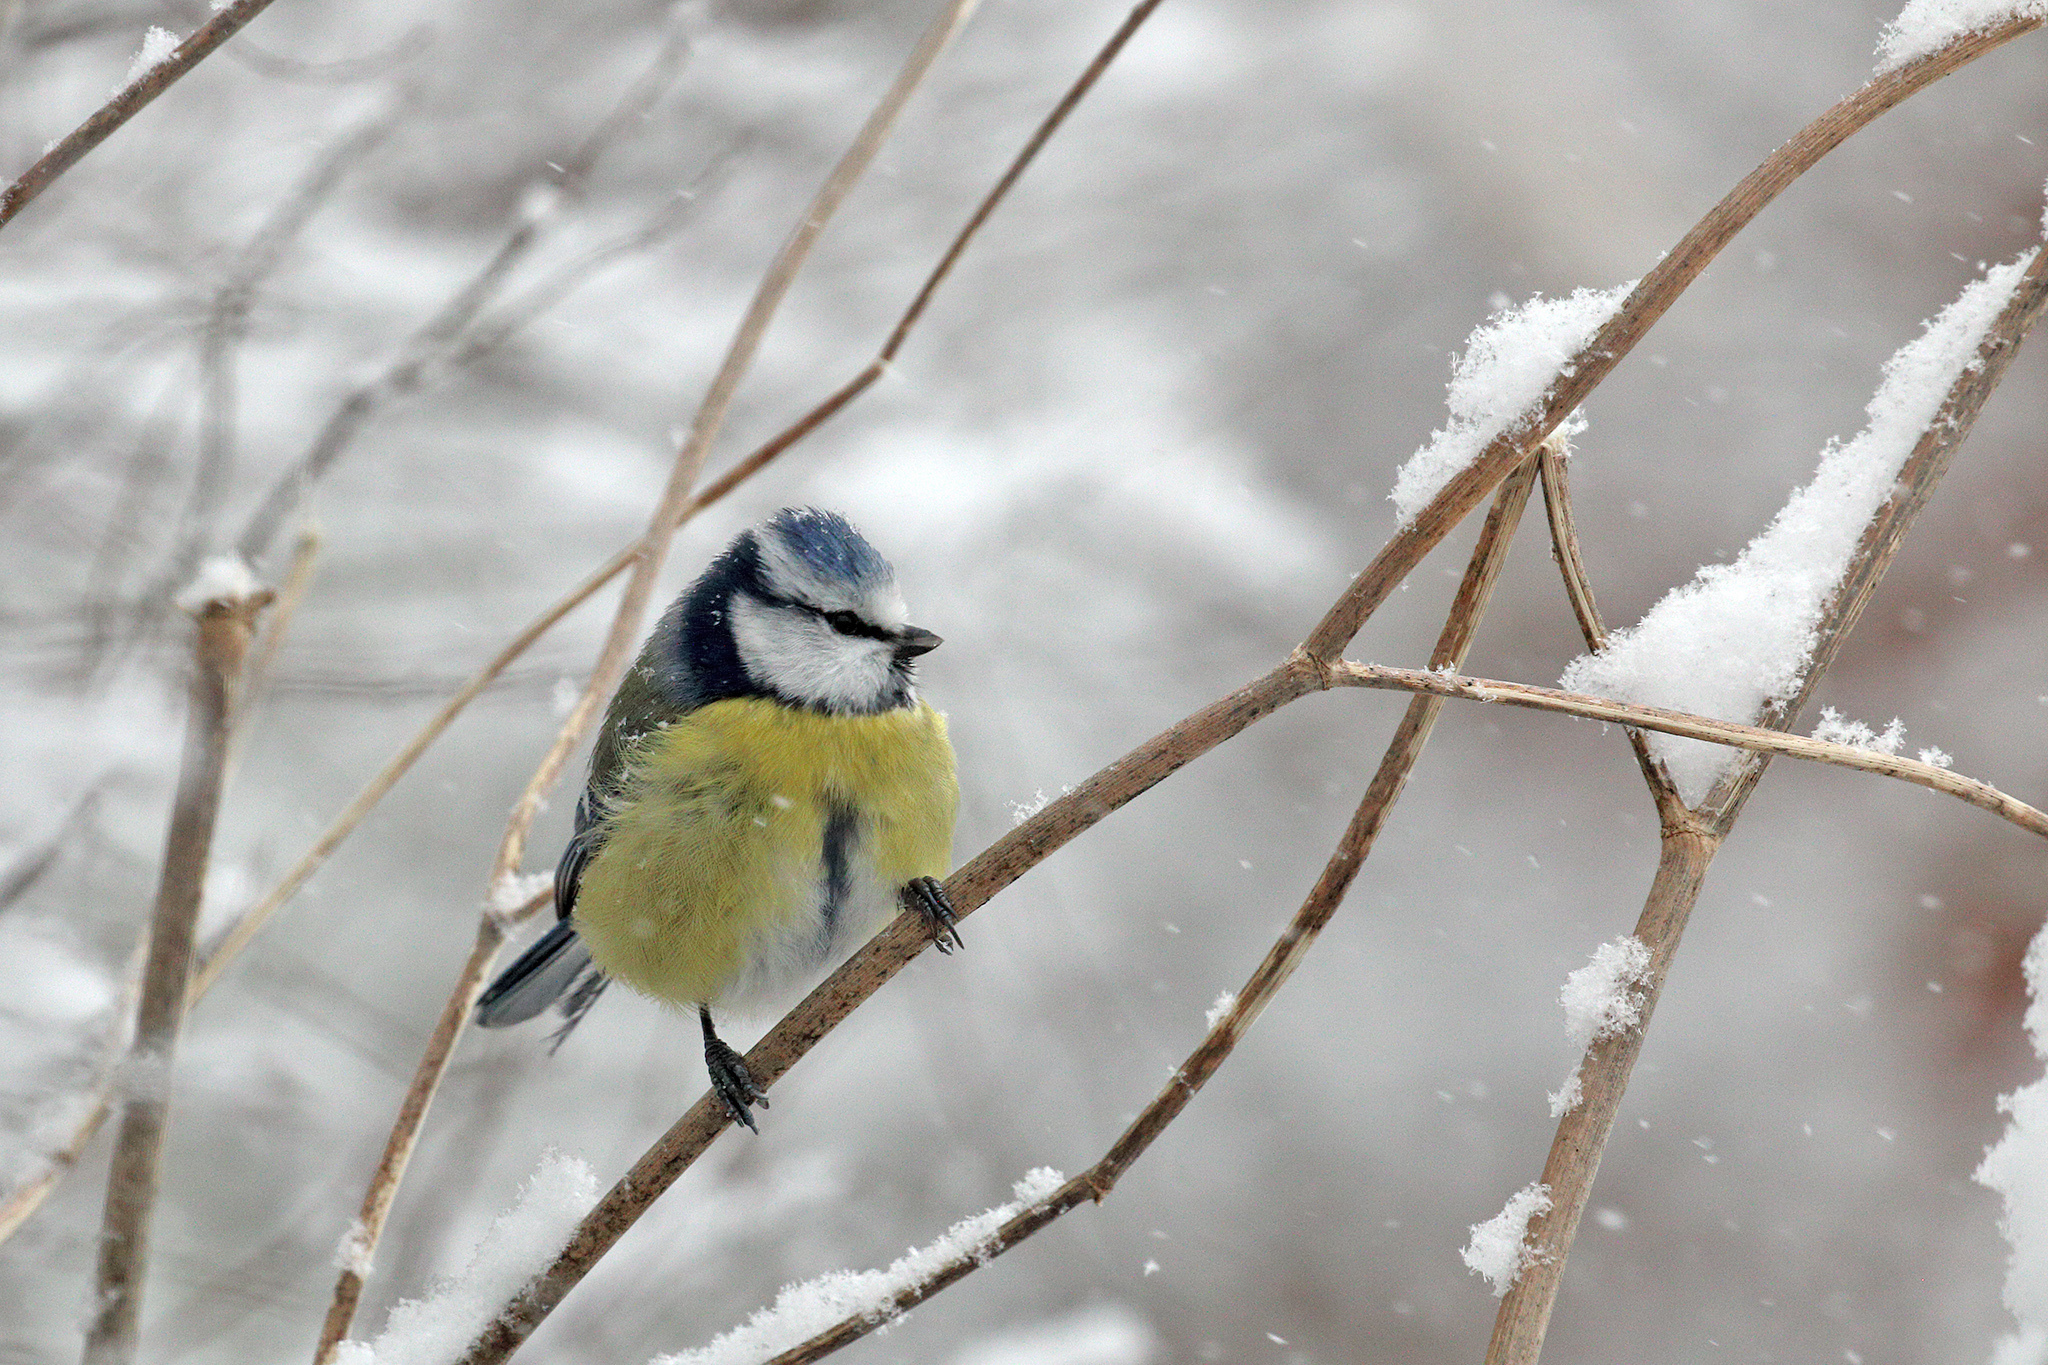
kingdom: Animalia
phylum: Chordata
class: Aves
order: Passeriformes
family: Paridae
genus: Cyanistes
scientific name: Cyanistes caeruleus
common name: Eurasian blue tit
